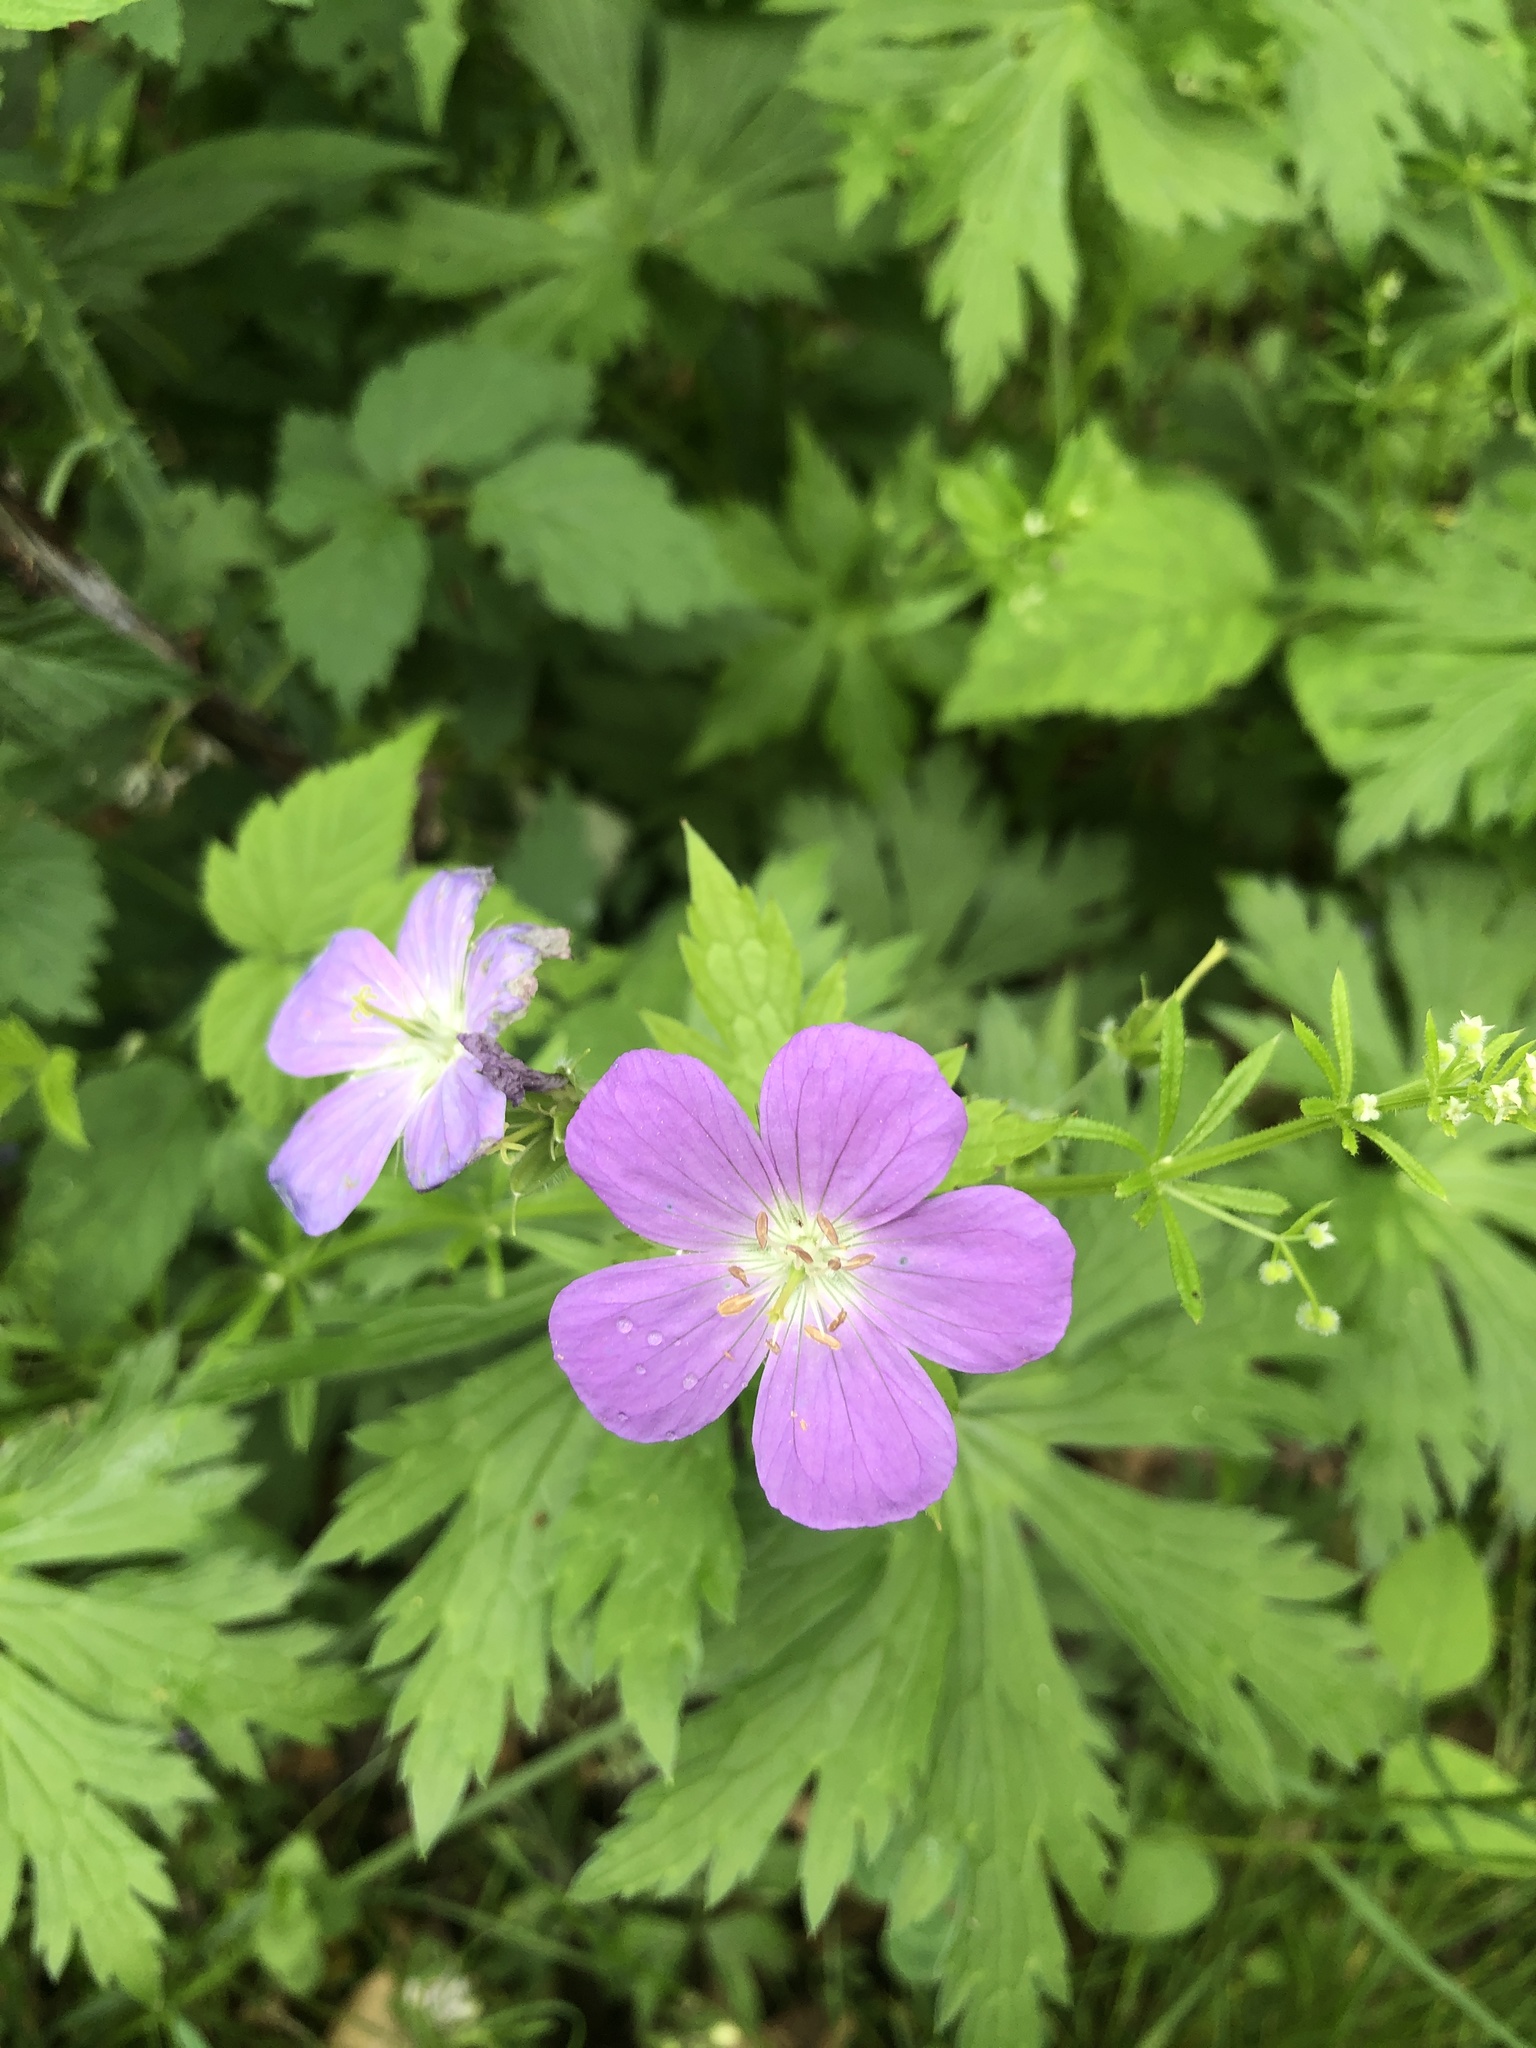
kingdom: Plantae
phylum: Tracheophyta
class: Magnoliopsida
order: Geraniales
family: Geraniaceae
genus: Geranium
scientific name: Geranium maculatum
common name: Spotted geranium
